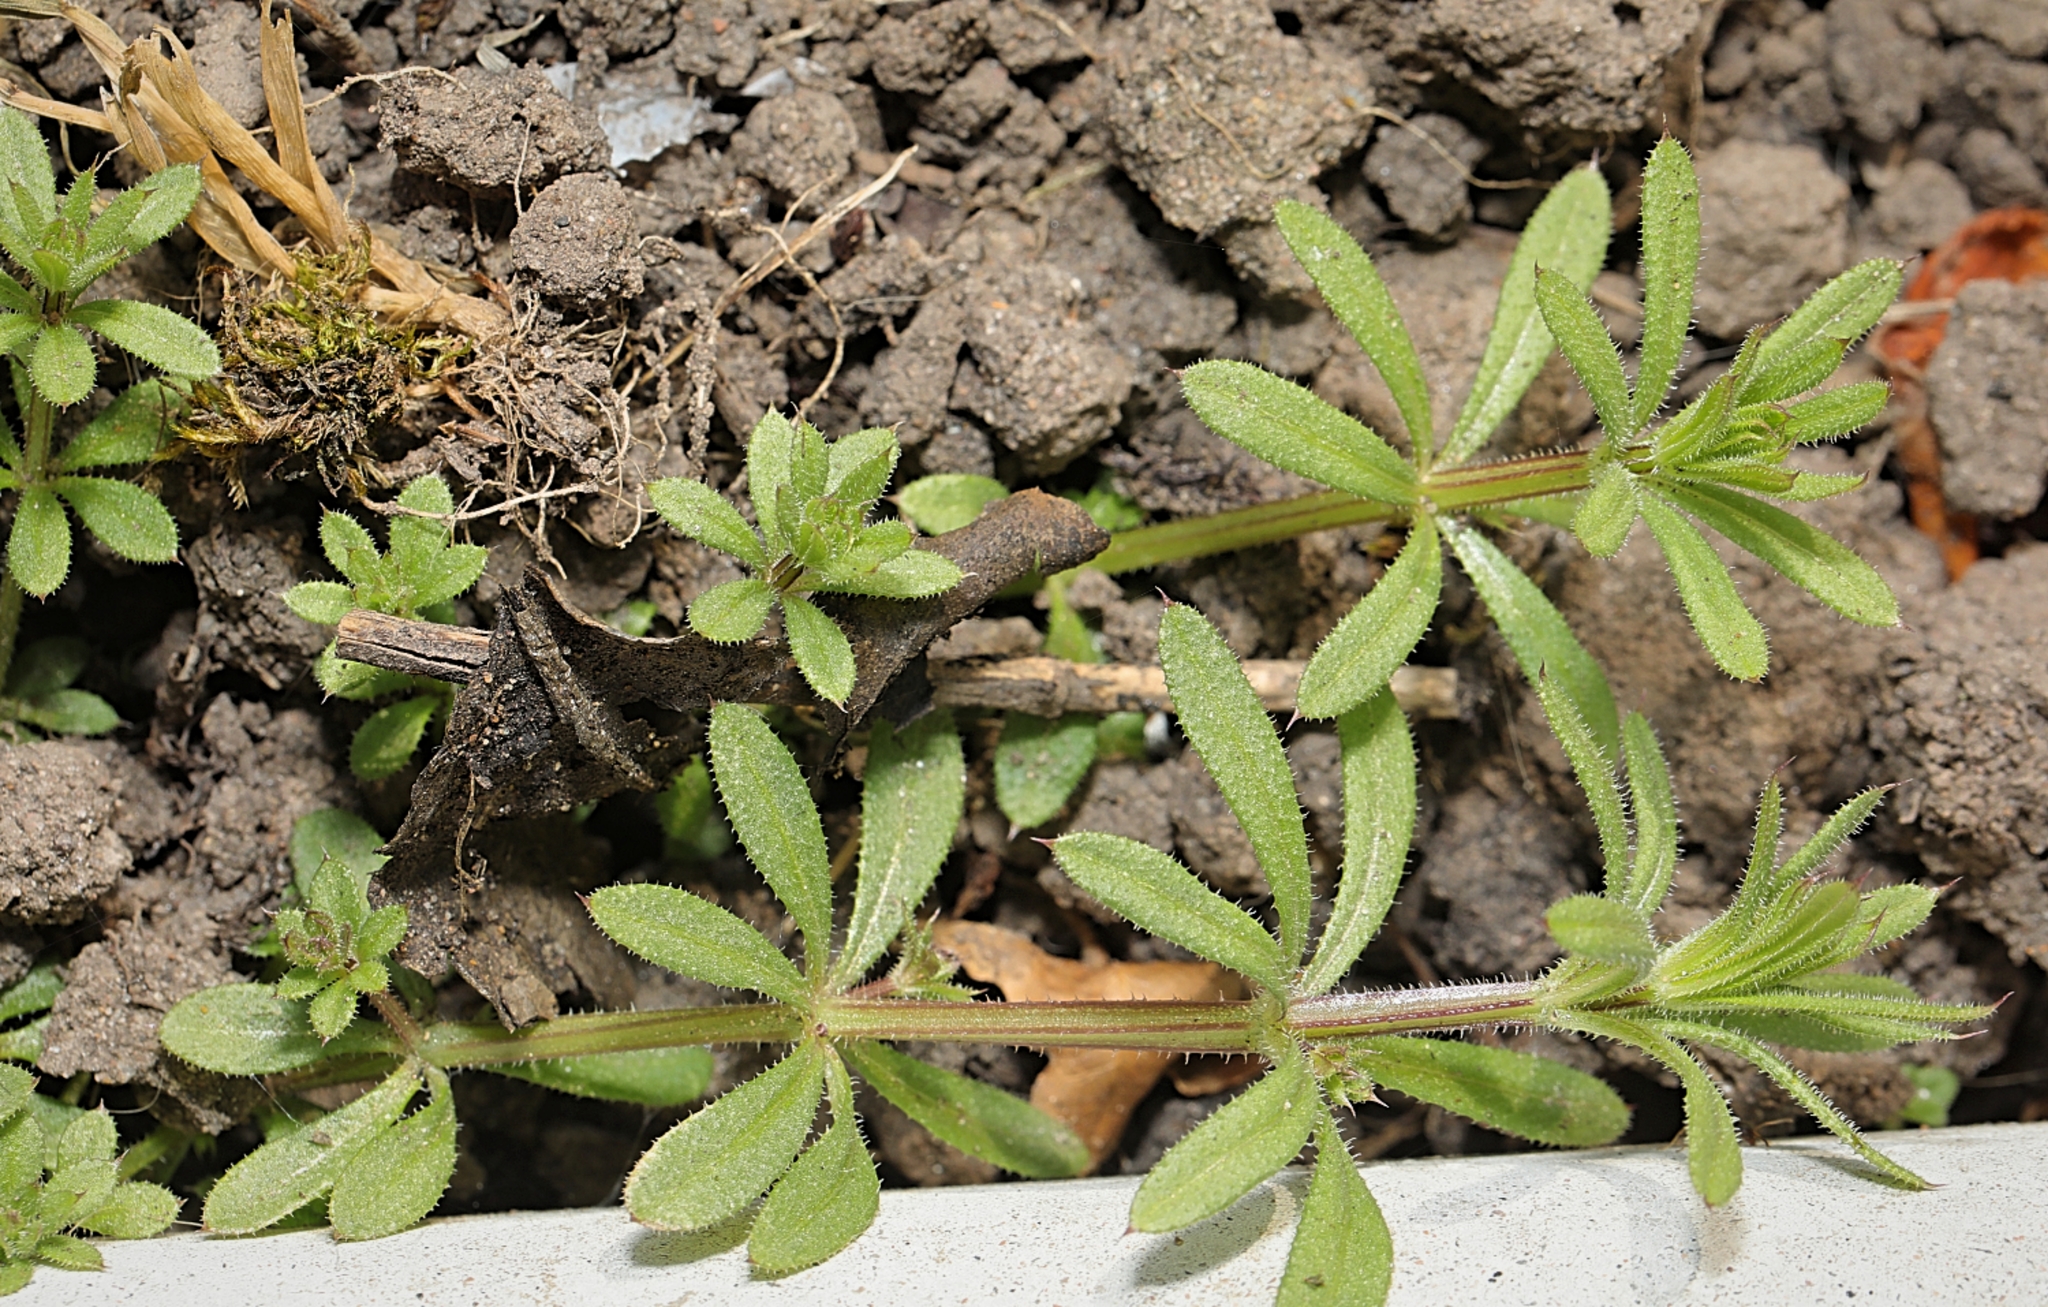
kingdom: Plantae
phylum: Tracheophyta
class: Magnoliopsida
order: Gentianales
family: Rubiaceae
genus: Galium
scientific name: Galium aparine
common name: Cleavers
